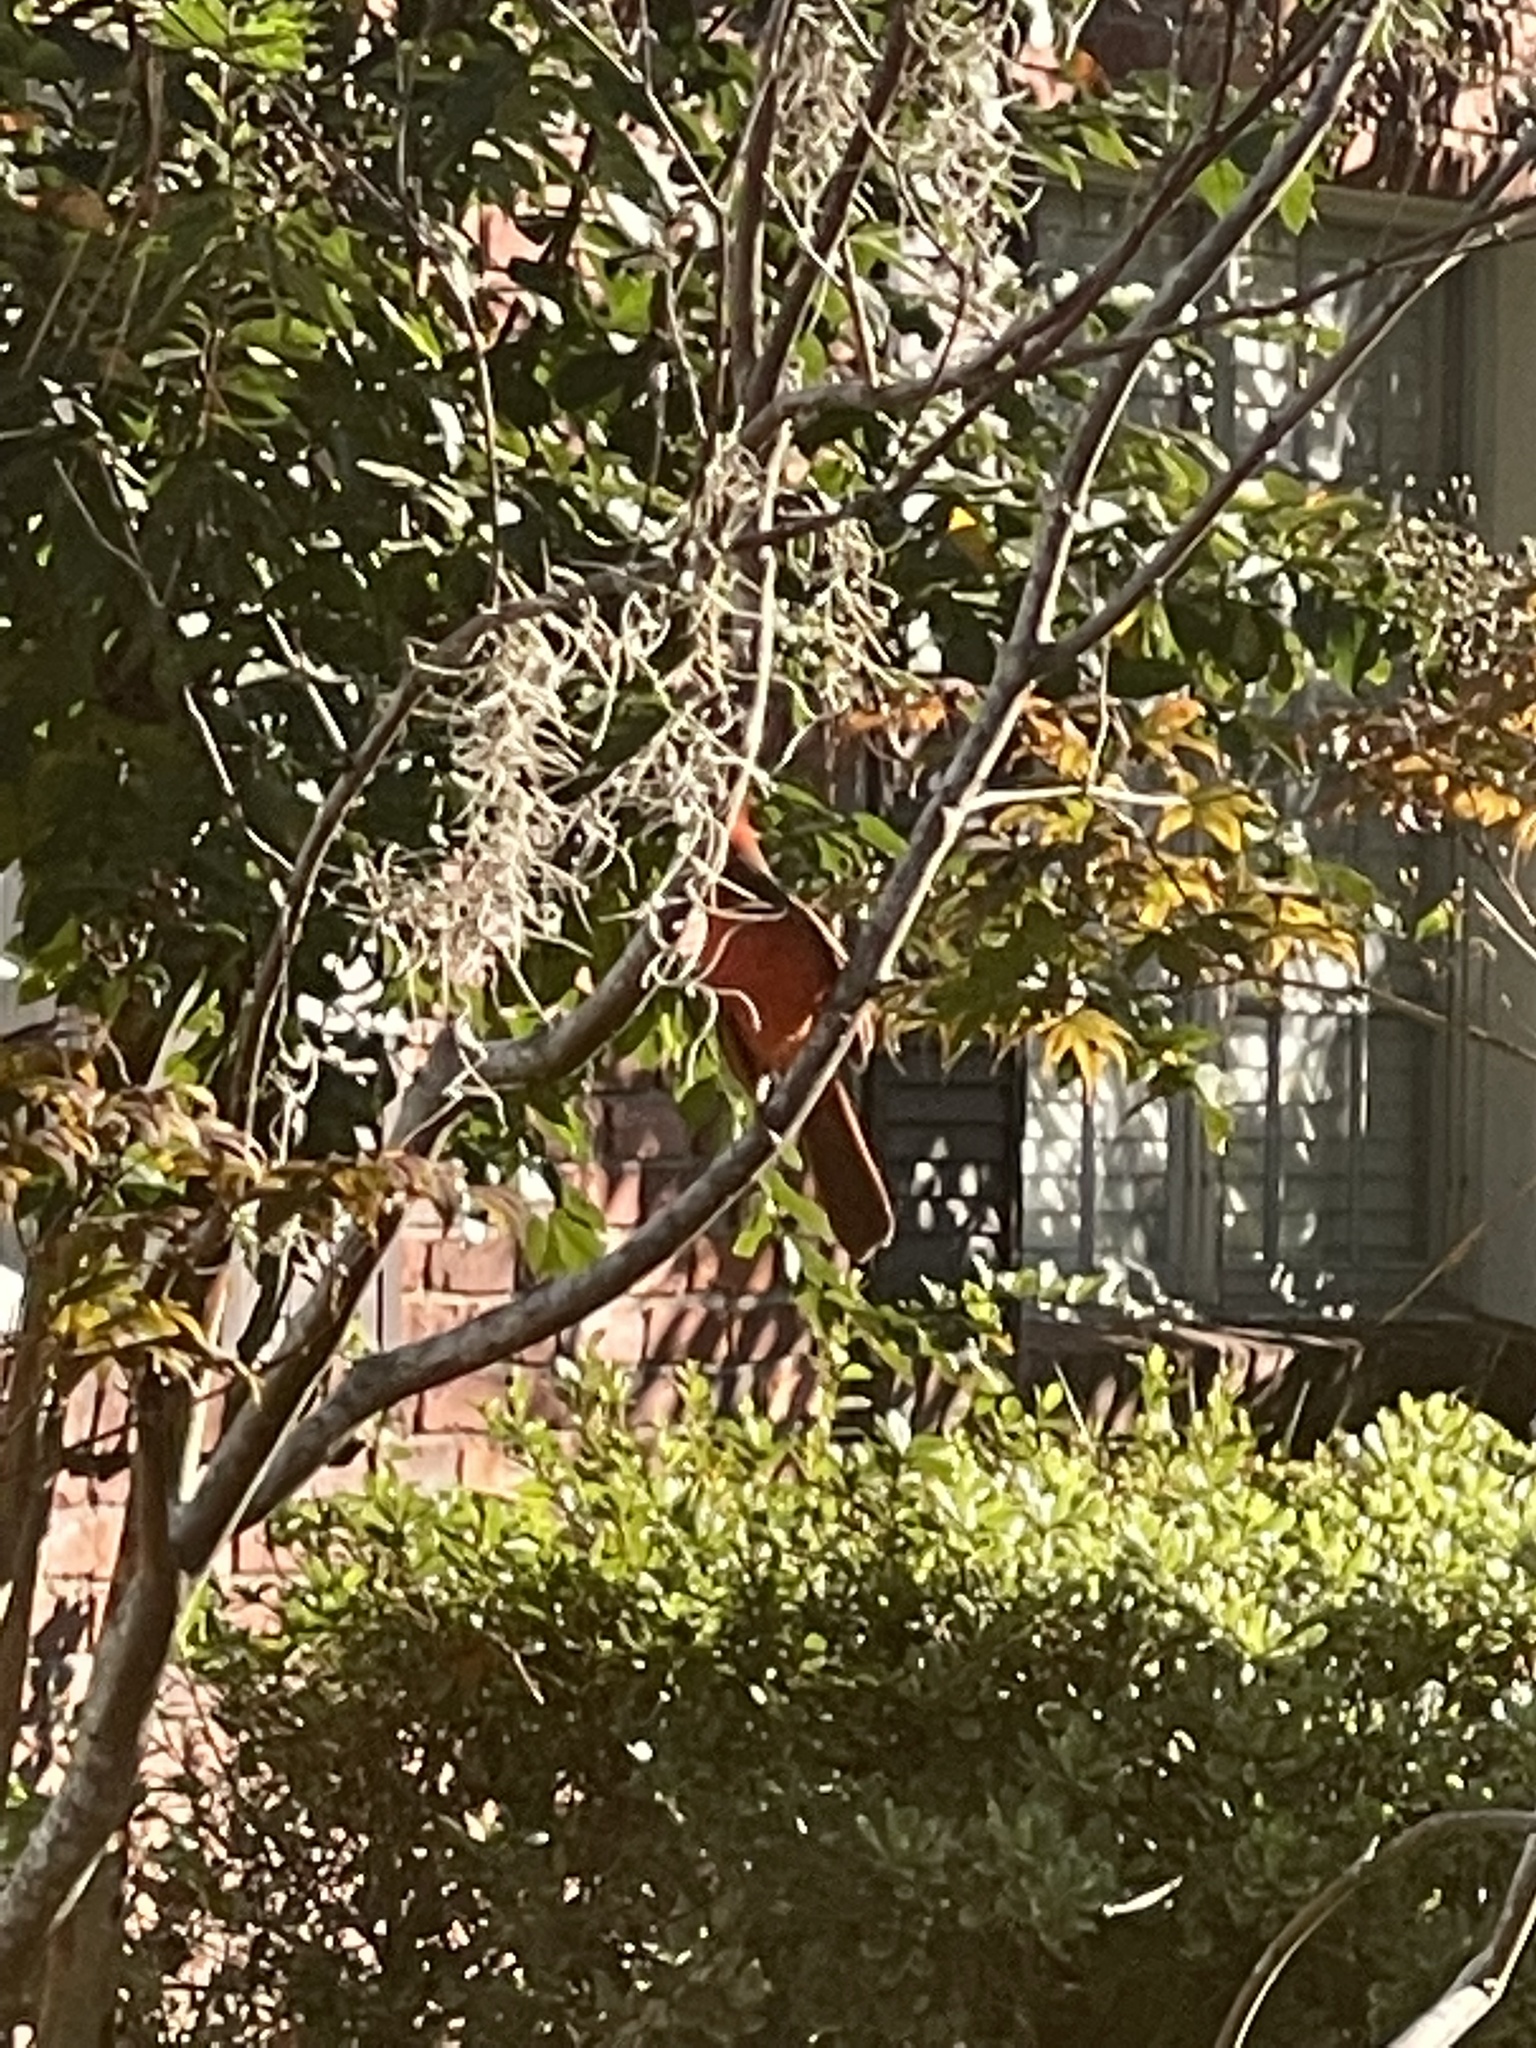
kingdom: Animalia
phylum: Chordata
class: Aves
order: Passeriformes
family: Cardinalidae
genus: Cardinalis
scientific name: Cardinalis cardinalis
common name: Northern cardinal
